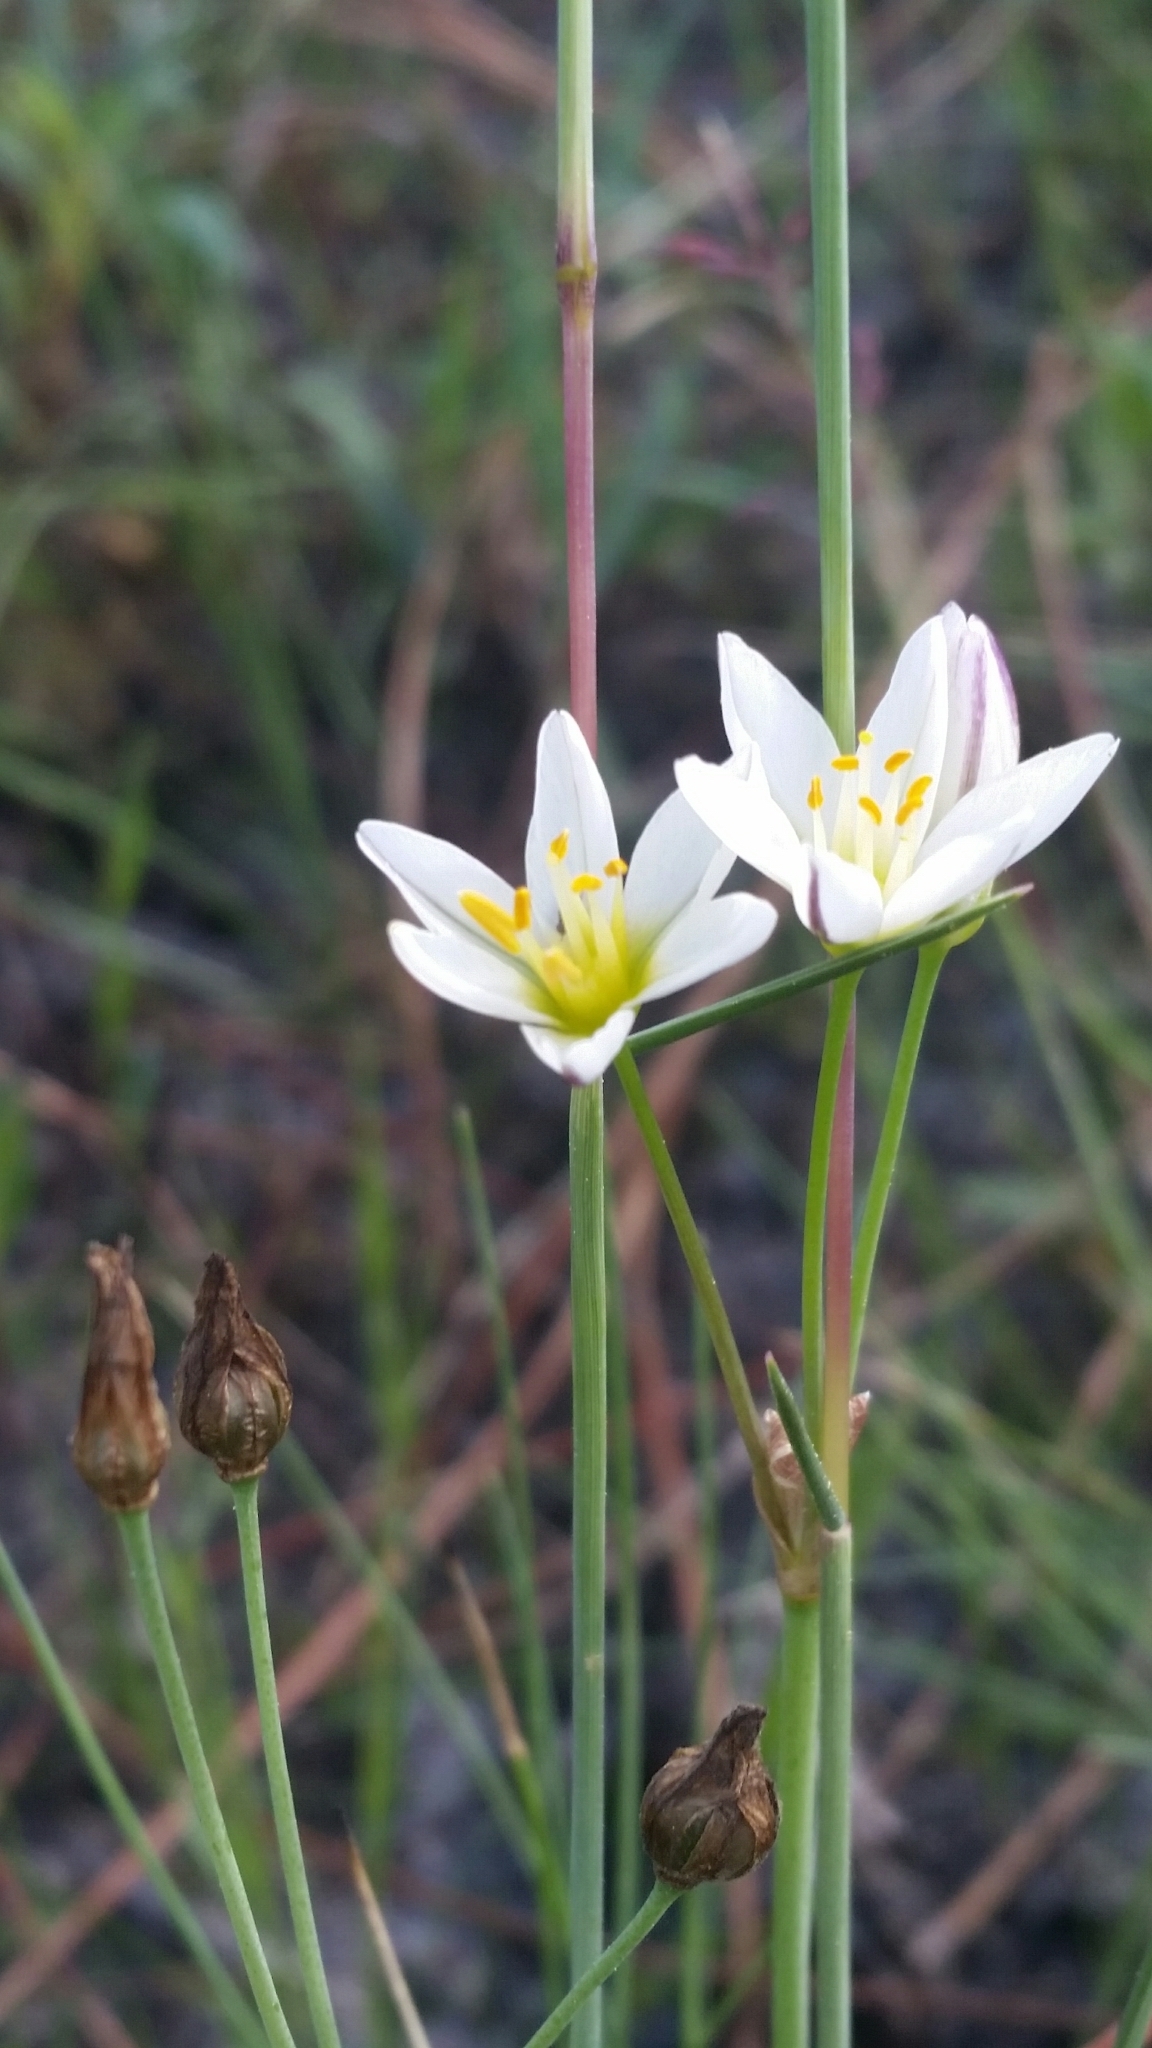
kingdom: Plantae
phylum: Tracheophyta
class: Liliopsida
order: Asparagales
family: Amaryllidaceae
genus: Nothoscordum
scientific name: Nothoscordum bivalve
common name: Crow-poison
